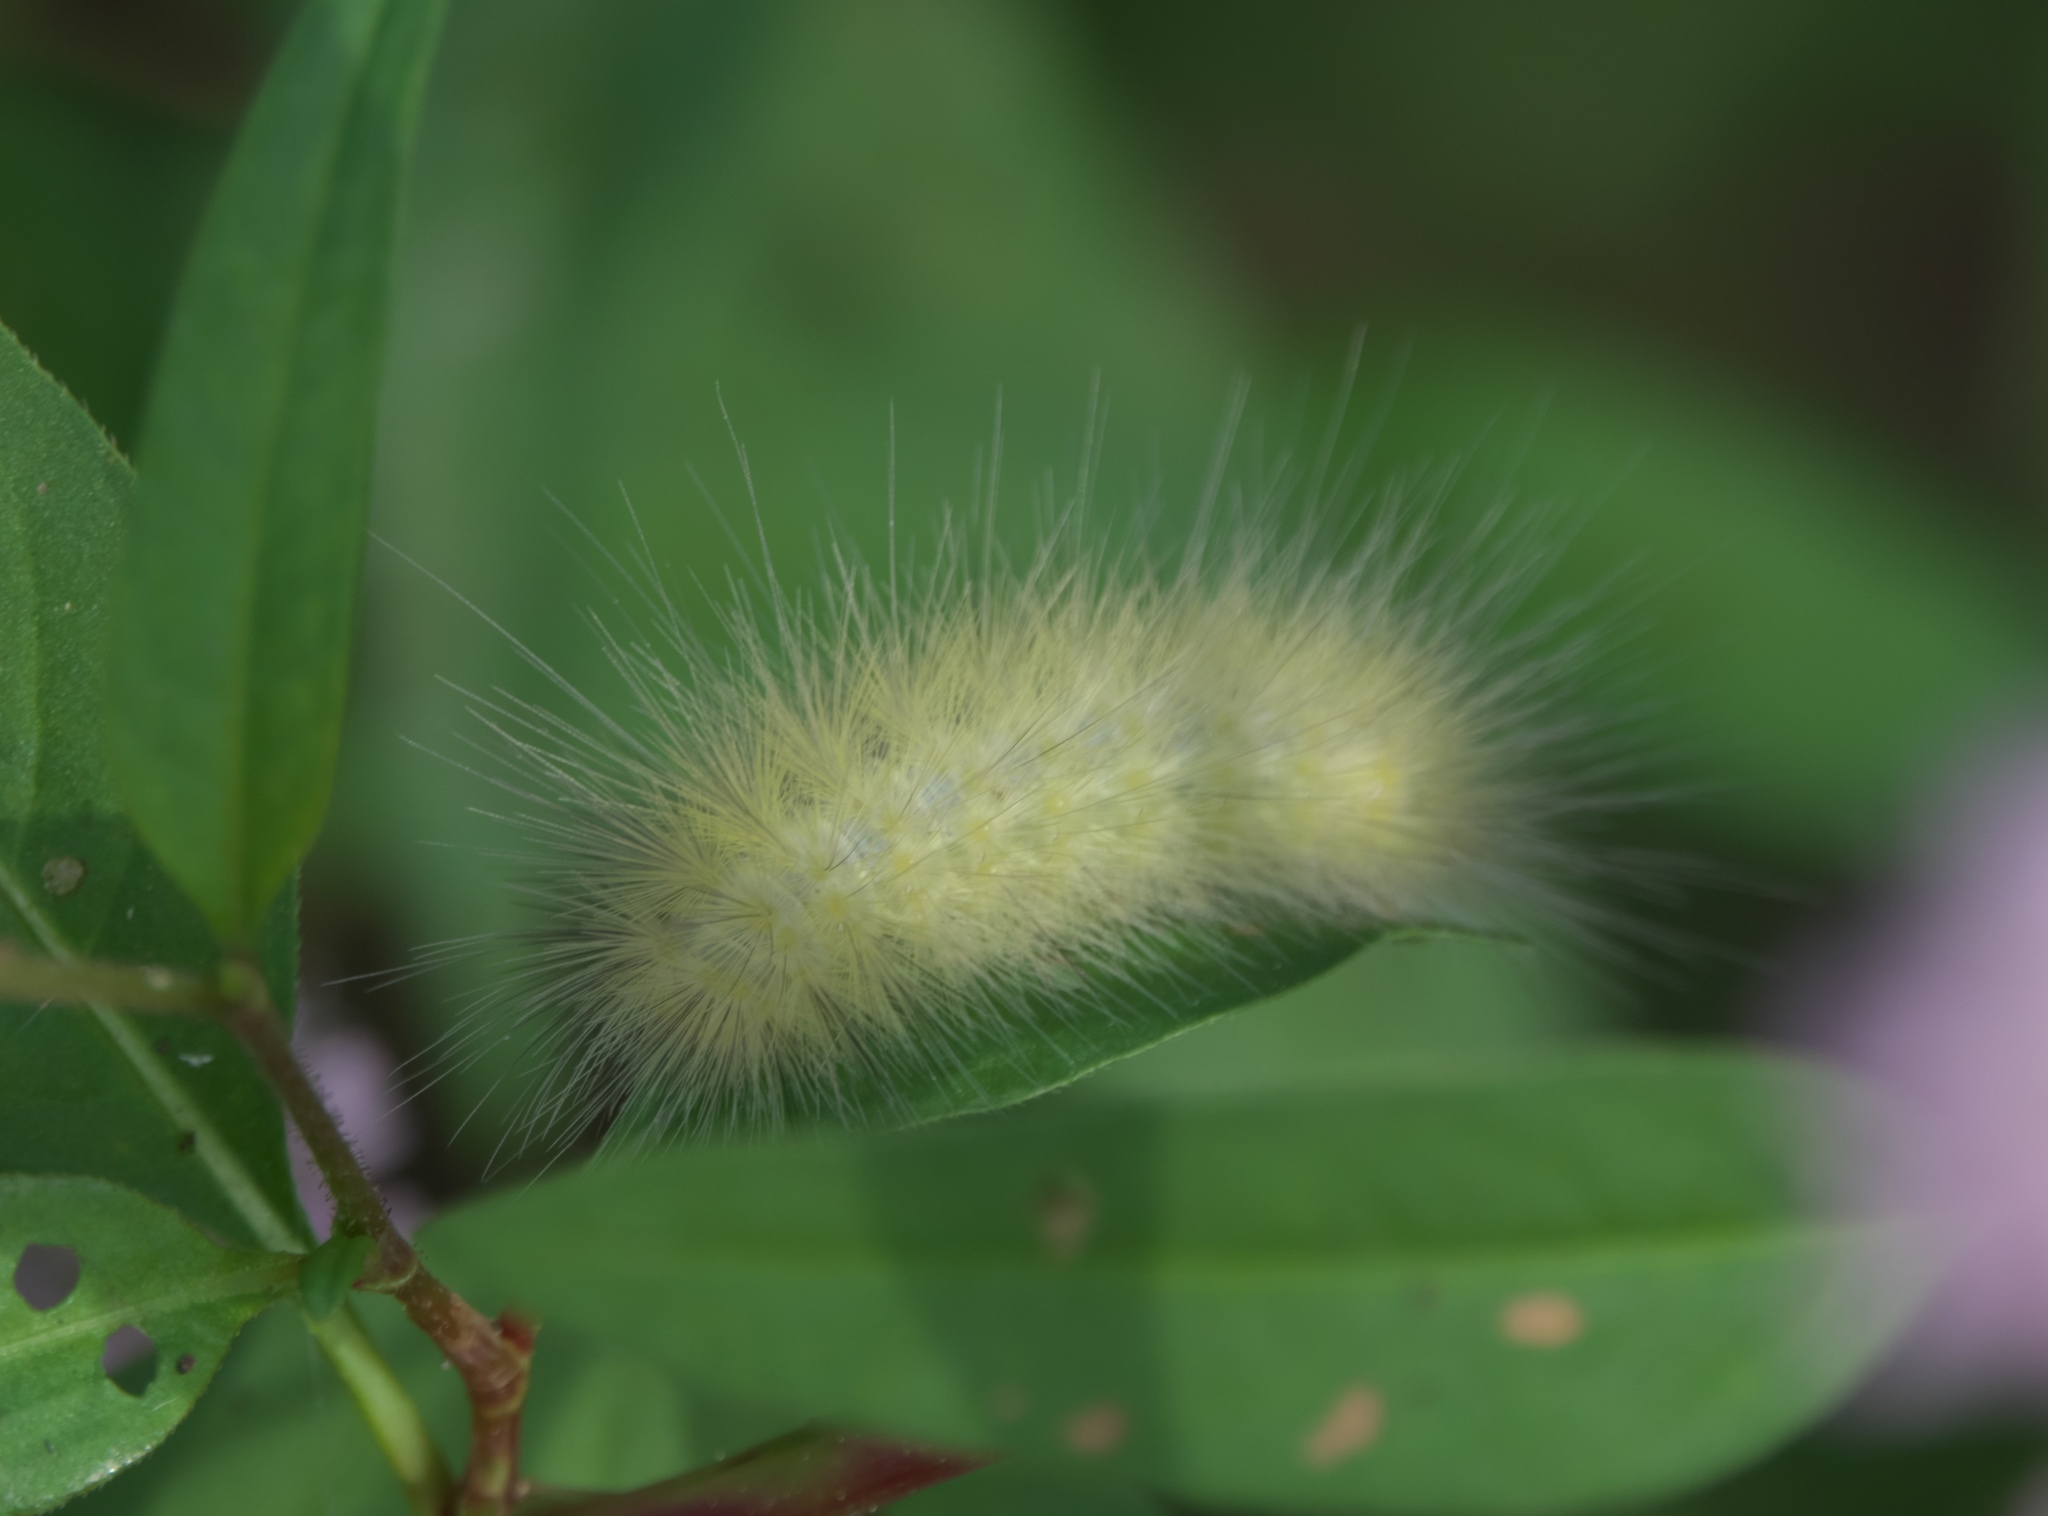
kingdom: Animalia
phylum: Arthropoda
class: Insecta
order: Lepidoptera
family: Erebidae
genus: Spilosoma
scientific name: Spilosoma virginica
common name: Virginia tiger moth
